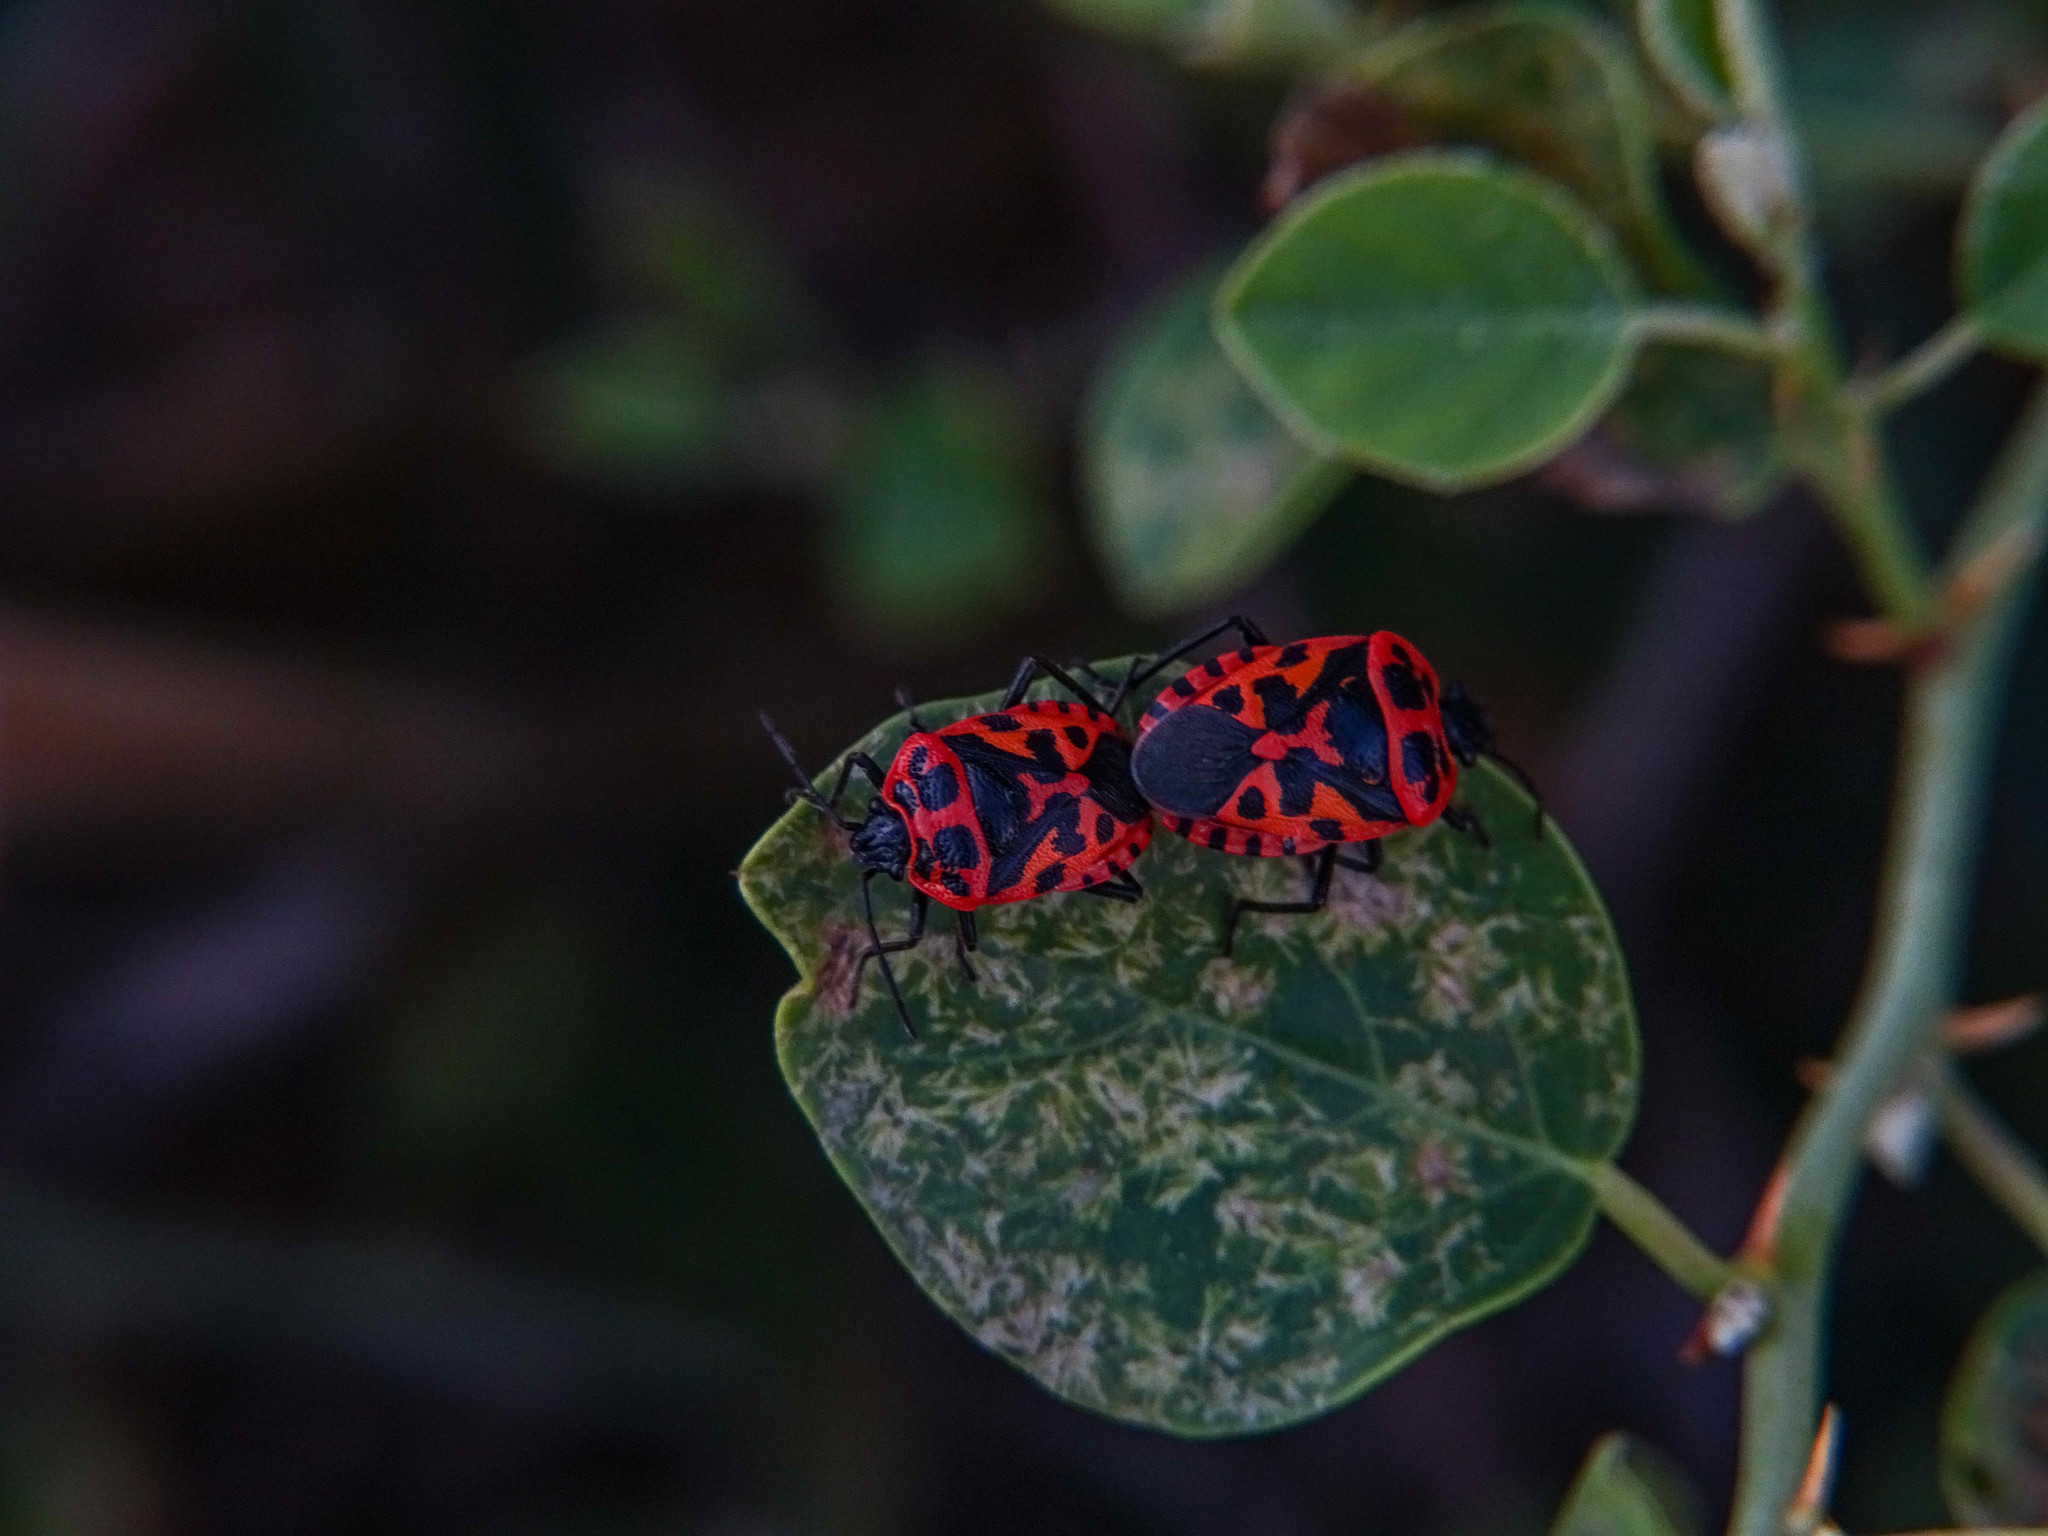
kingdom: Animalia
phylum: Arthropoda
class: Insecta
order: Hemiptera
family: Pentatomidae
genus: Eurydema
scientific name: Eurydema eckerleini
